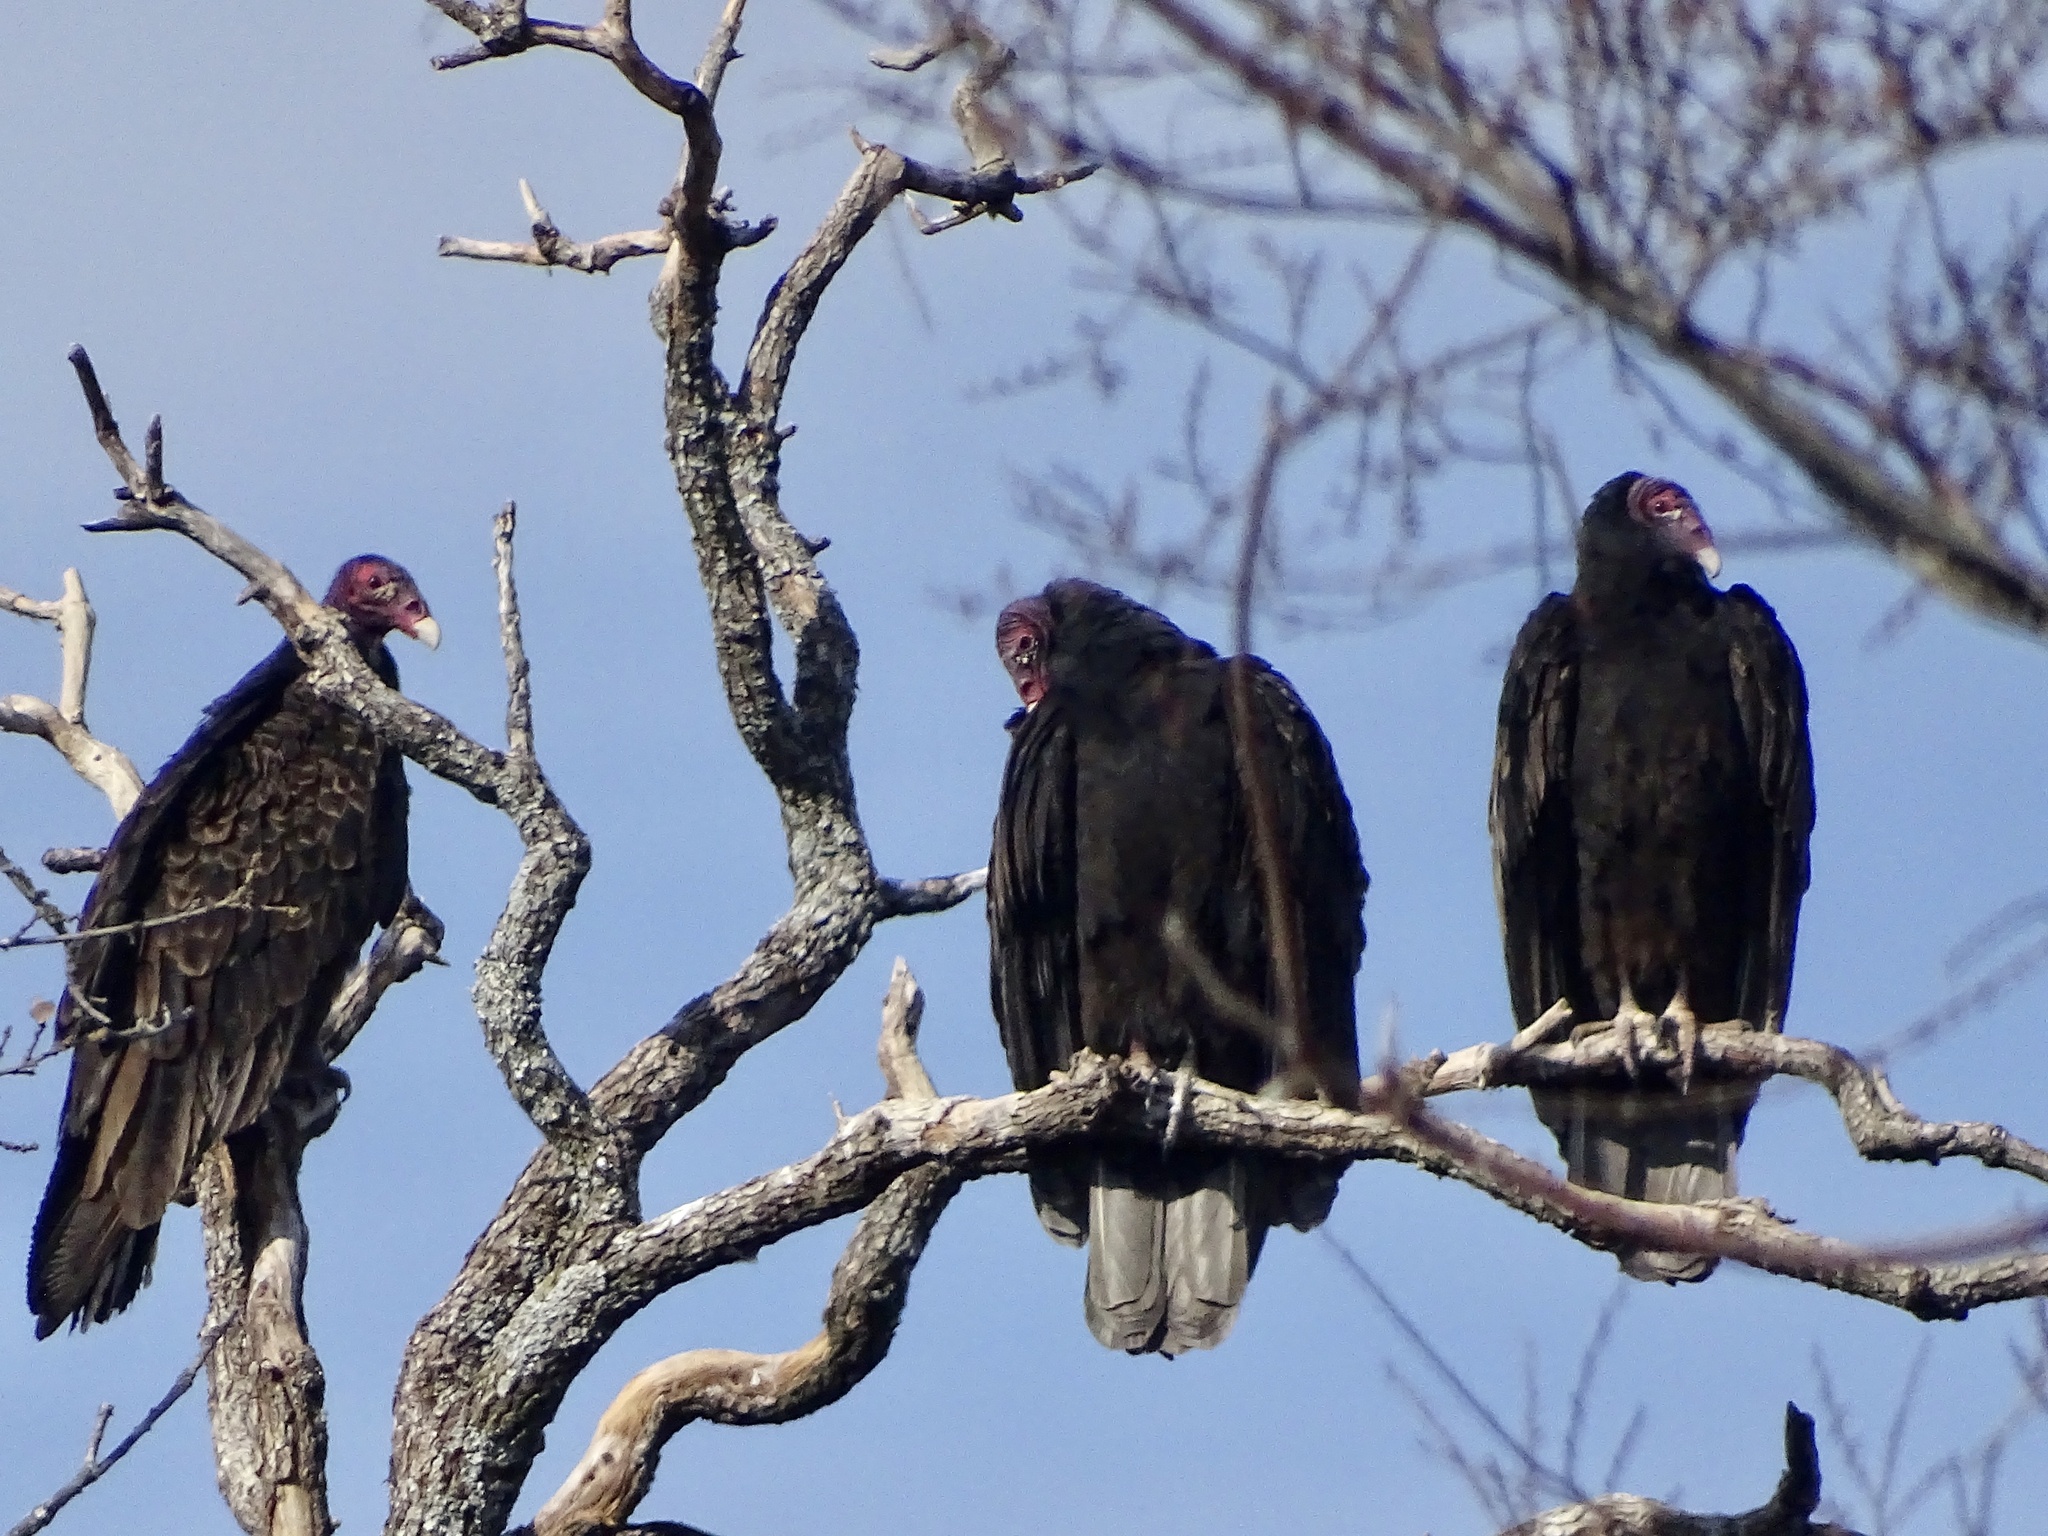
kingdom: Animalia
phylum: Chordata
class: Aves
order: Accipitriformes
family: Cathartidae
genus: Cathartes
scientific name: Cathartes aura
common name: Turkey vulture
